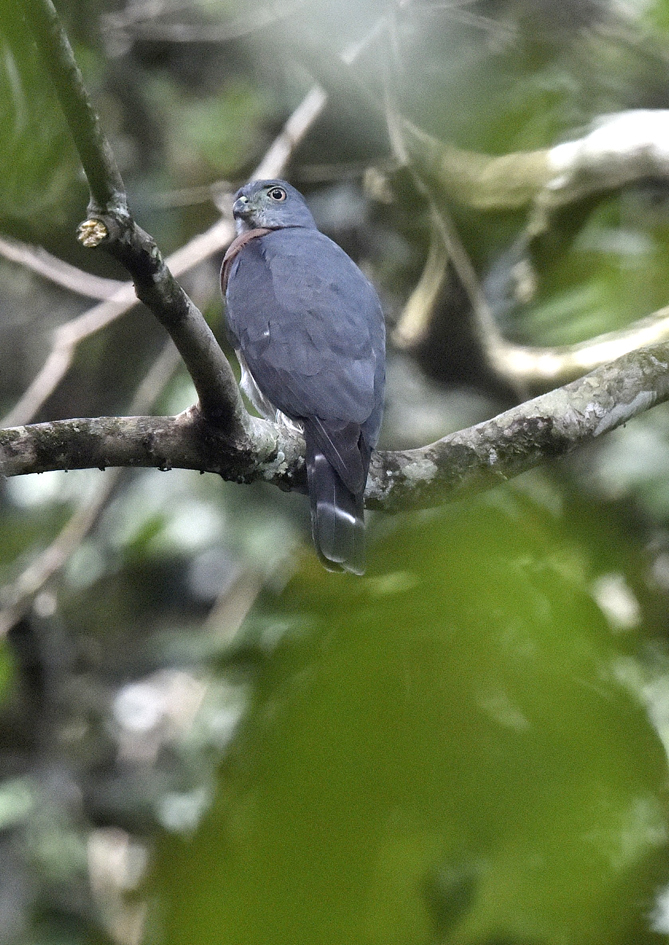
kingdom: Animalia
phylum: Chordata
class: Aves
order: Accipitriformes
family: Accipitridae
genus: Harpagus
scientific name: Harpagus bidentatus
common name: Double-toothed kite
